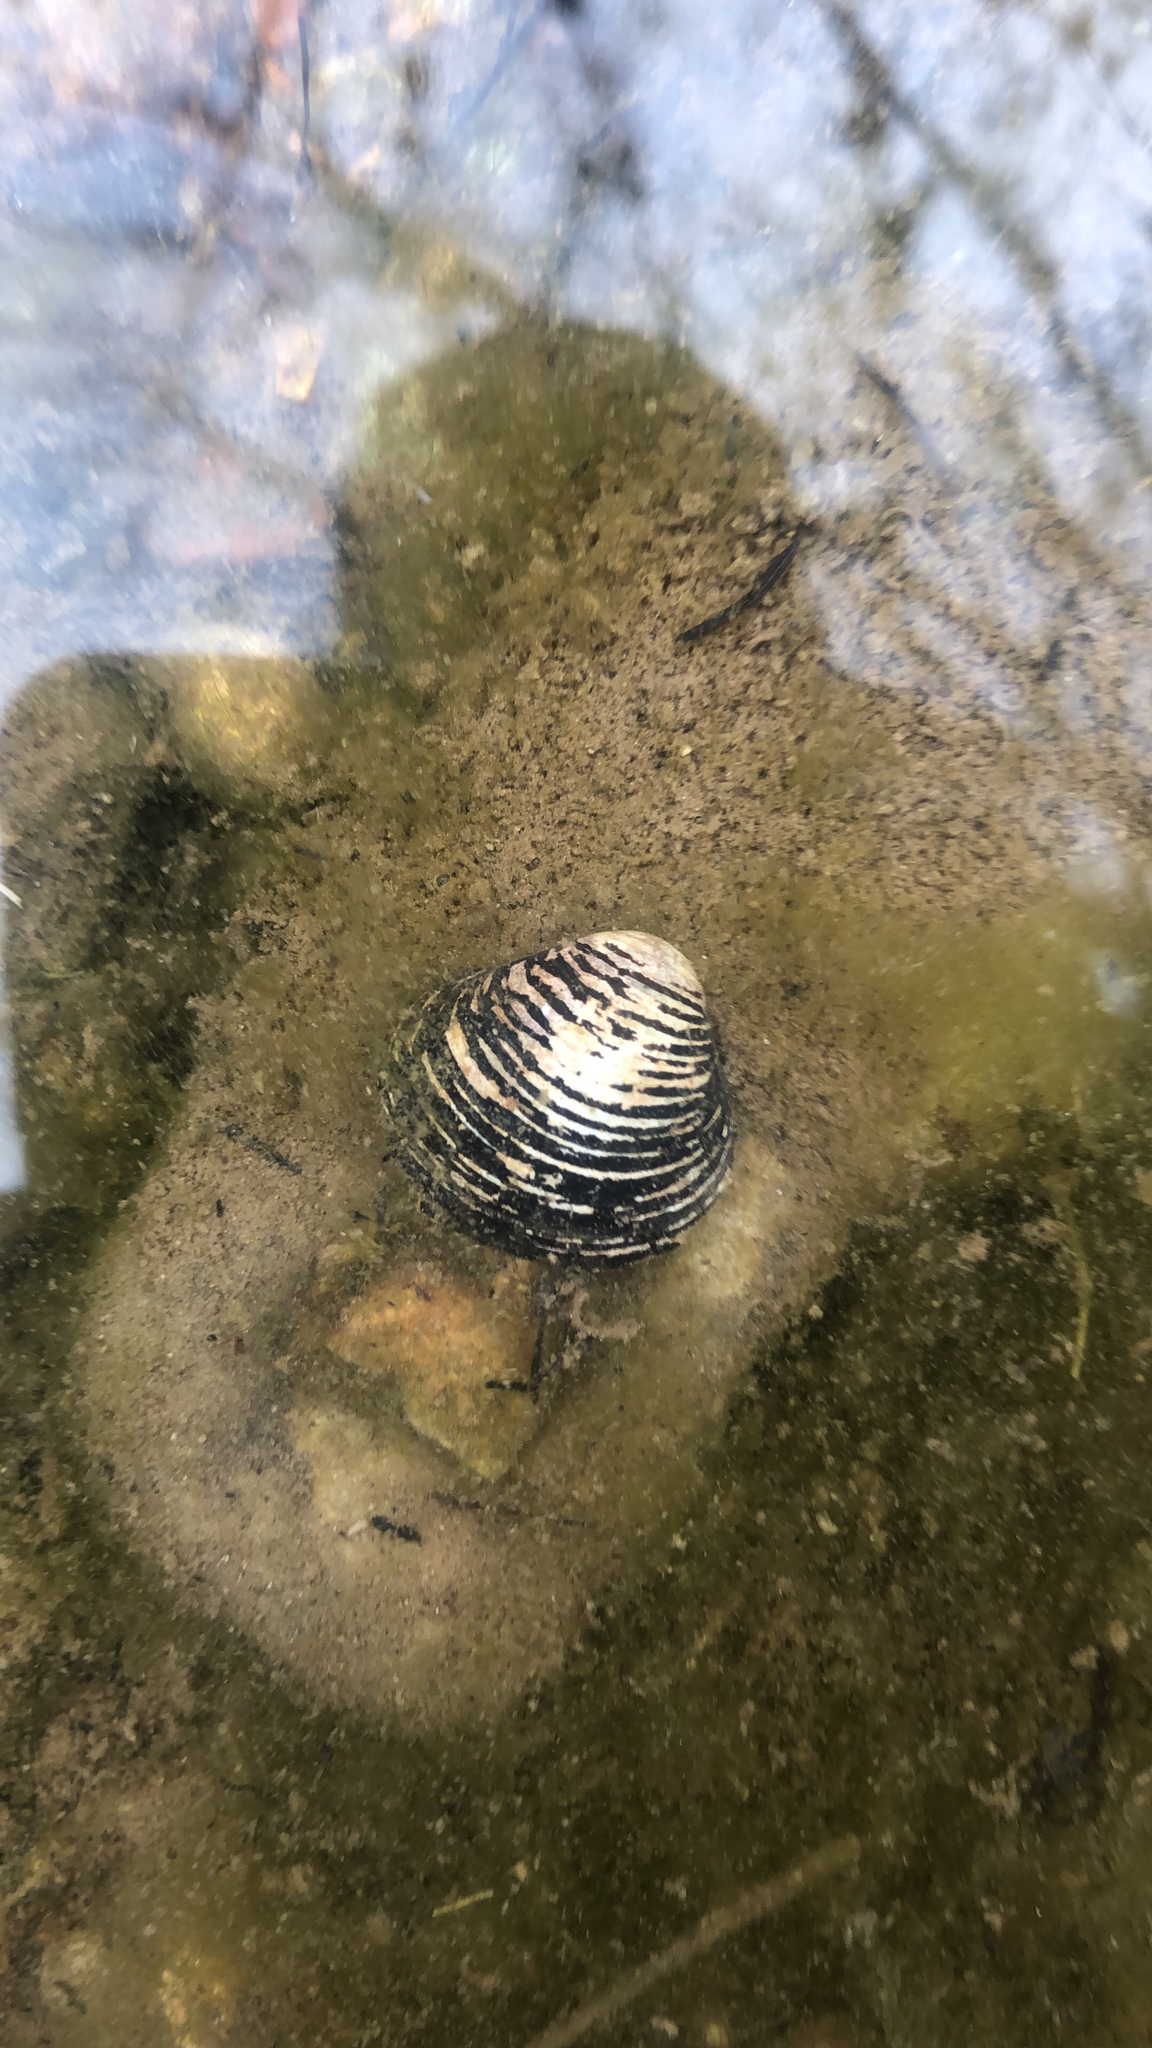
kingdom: Animalia
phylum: Mollusca
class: Bivalvia
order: Venerida
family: Cyrenidae
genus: Corbicula
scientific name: Corbicula fluminea
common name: Asian clam
